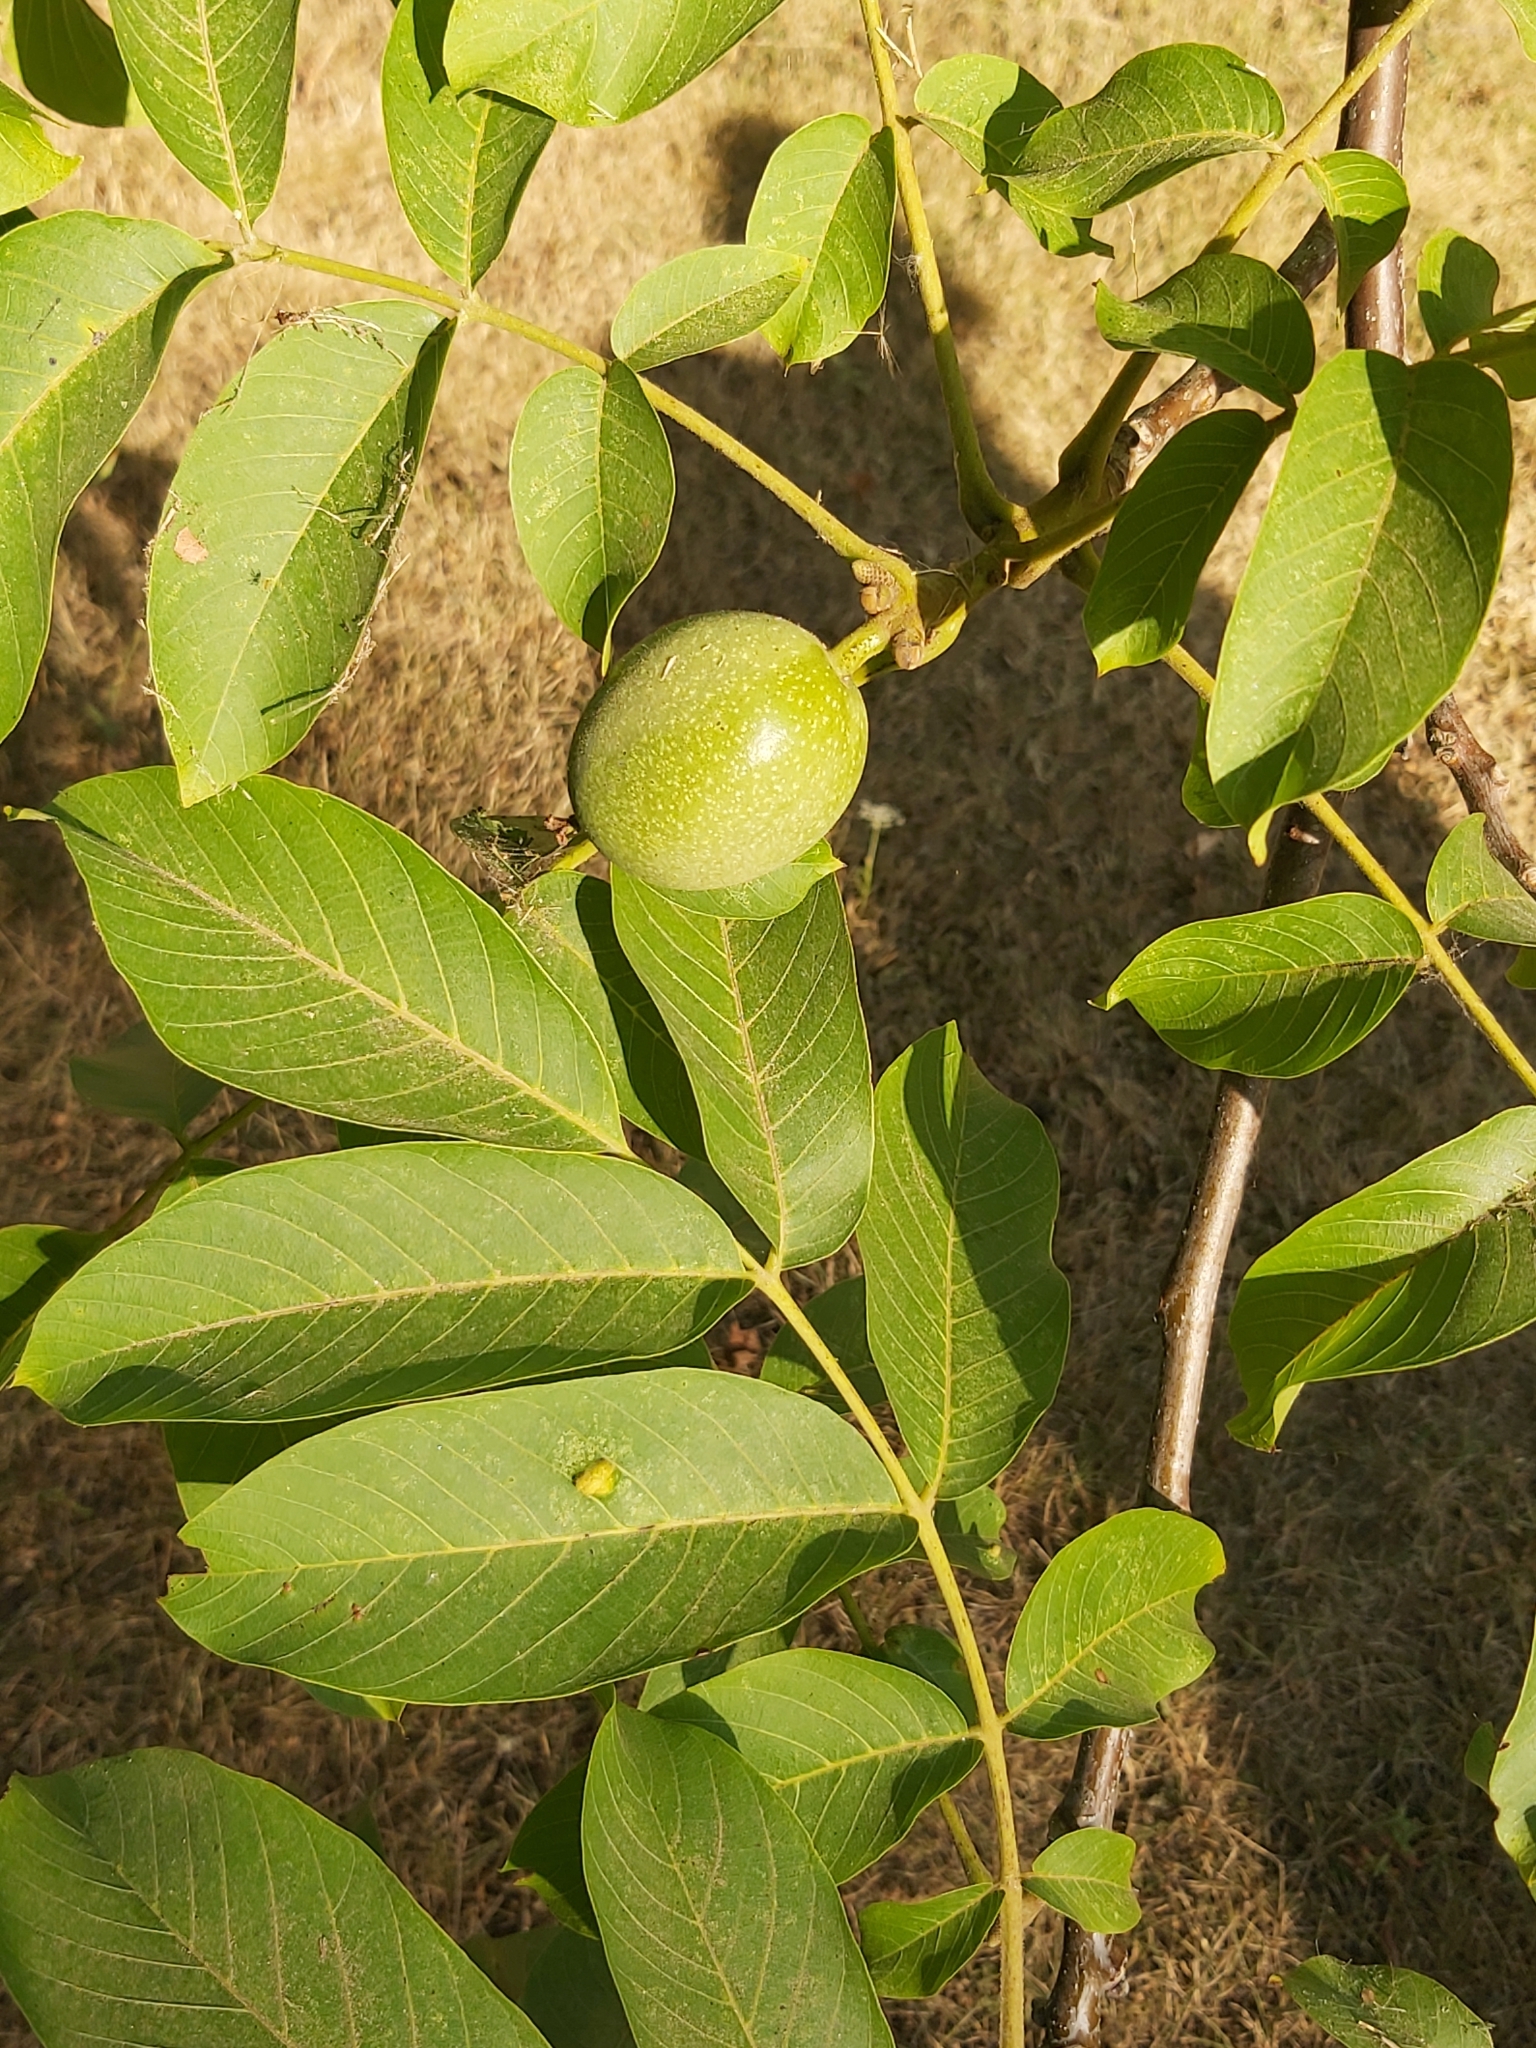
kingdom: Animalia
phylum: Arthropoda
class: Arachnida
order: Trombidiformes
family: Eriophyidae
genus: Aceria
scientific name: Aceria erinea
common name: Persian walnut erineum mite
